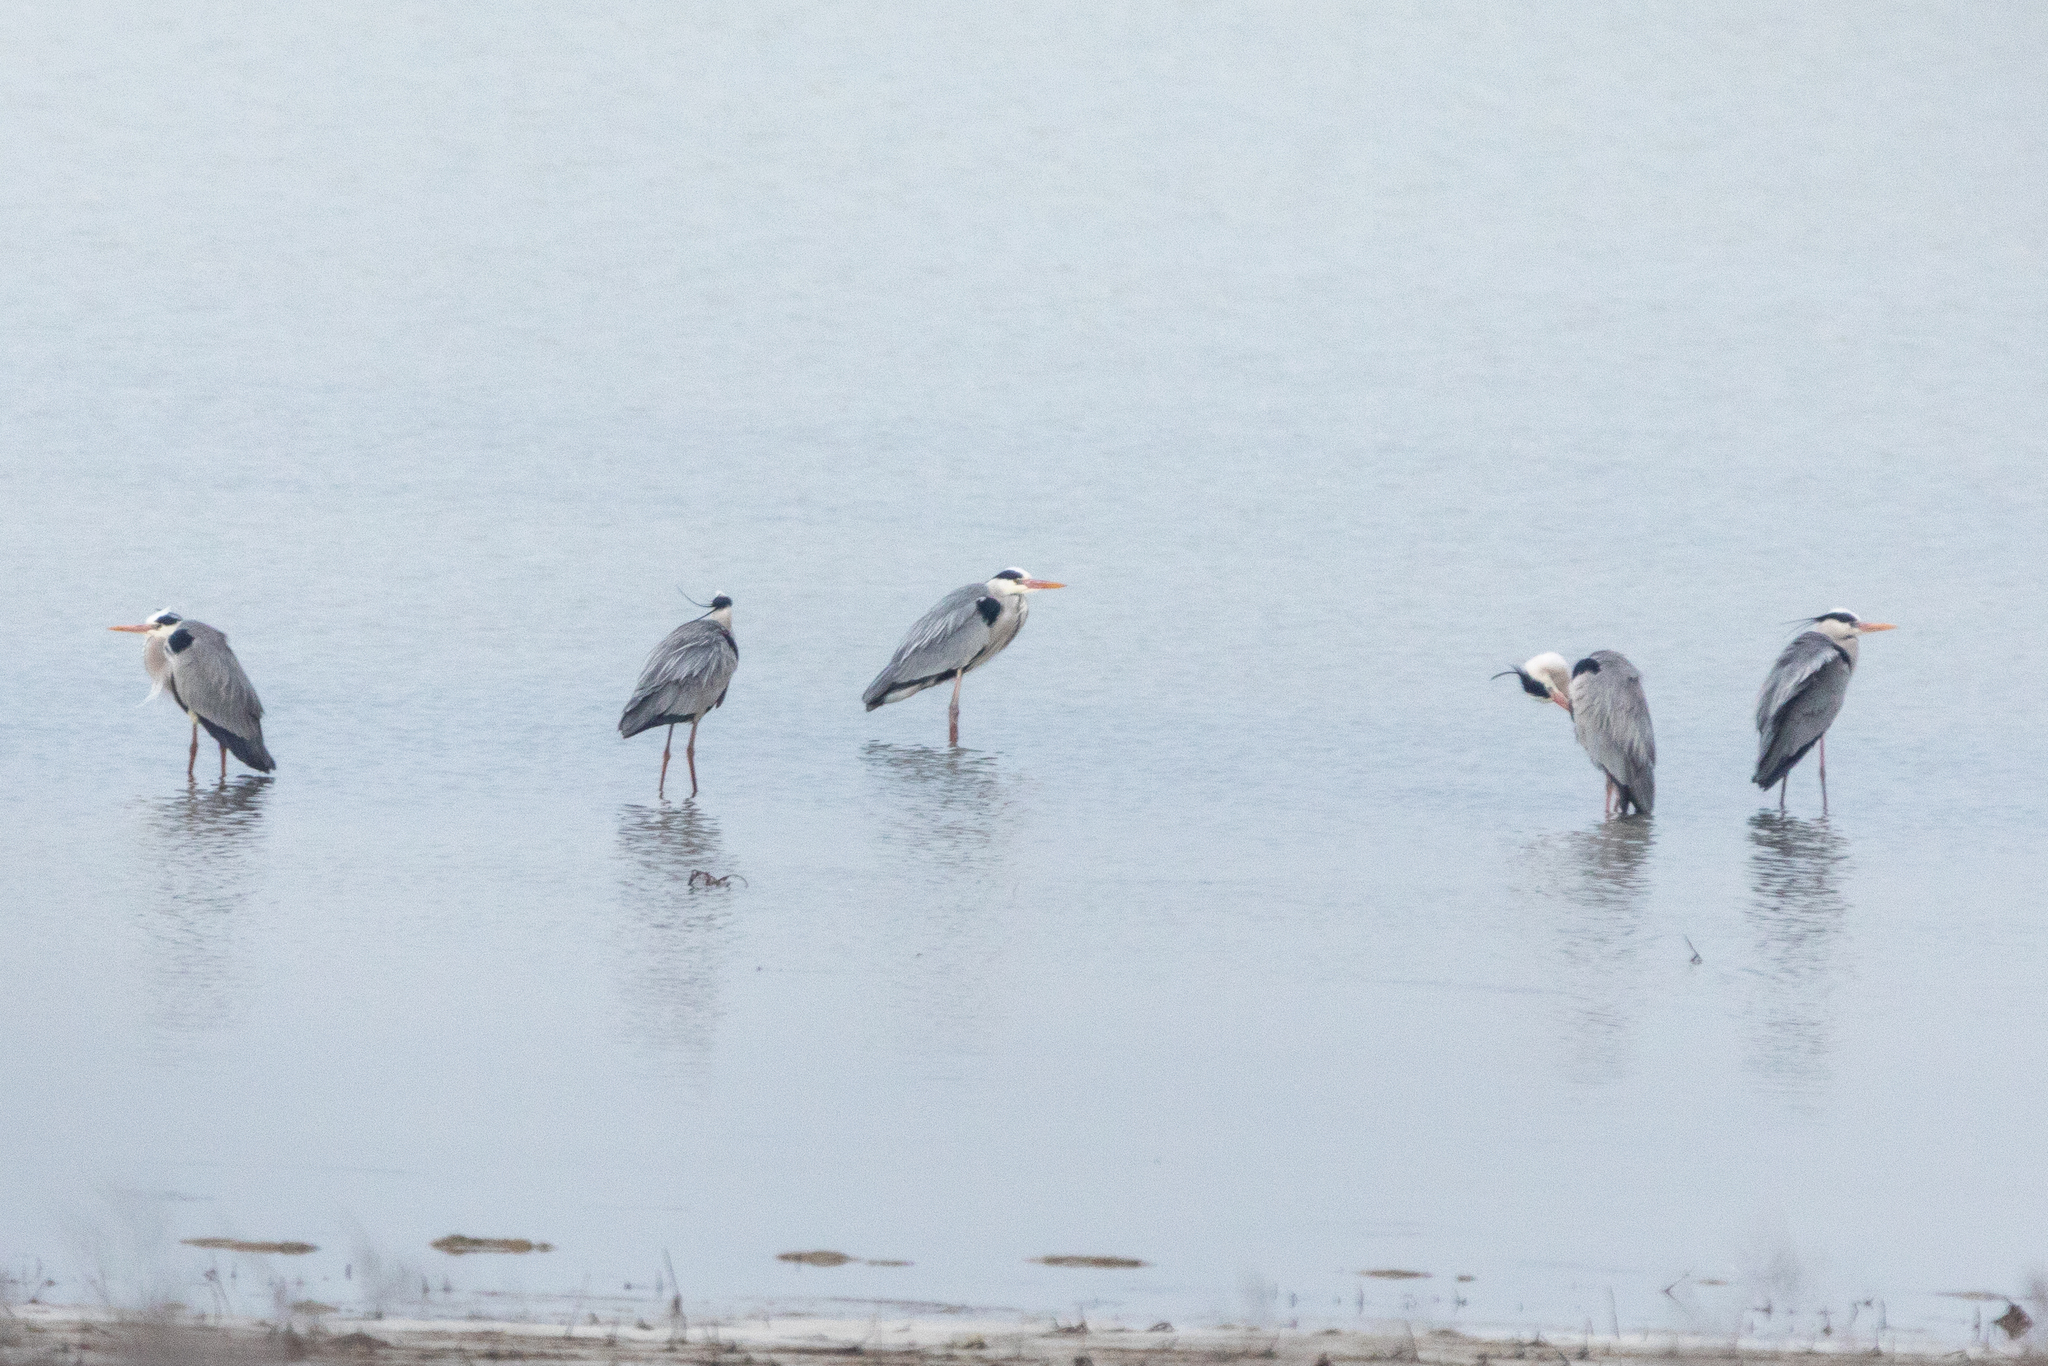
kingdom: Animalia
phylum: Chordata
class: Aves
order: Pelecaniformes
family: Ardeidae
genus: Ardea
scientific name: Ardea cinerea
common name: Grey heron
